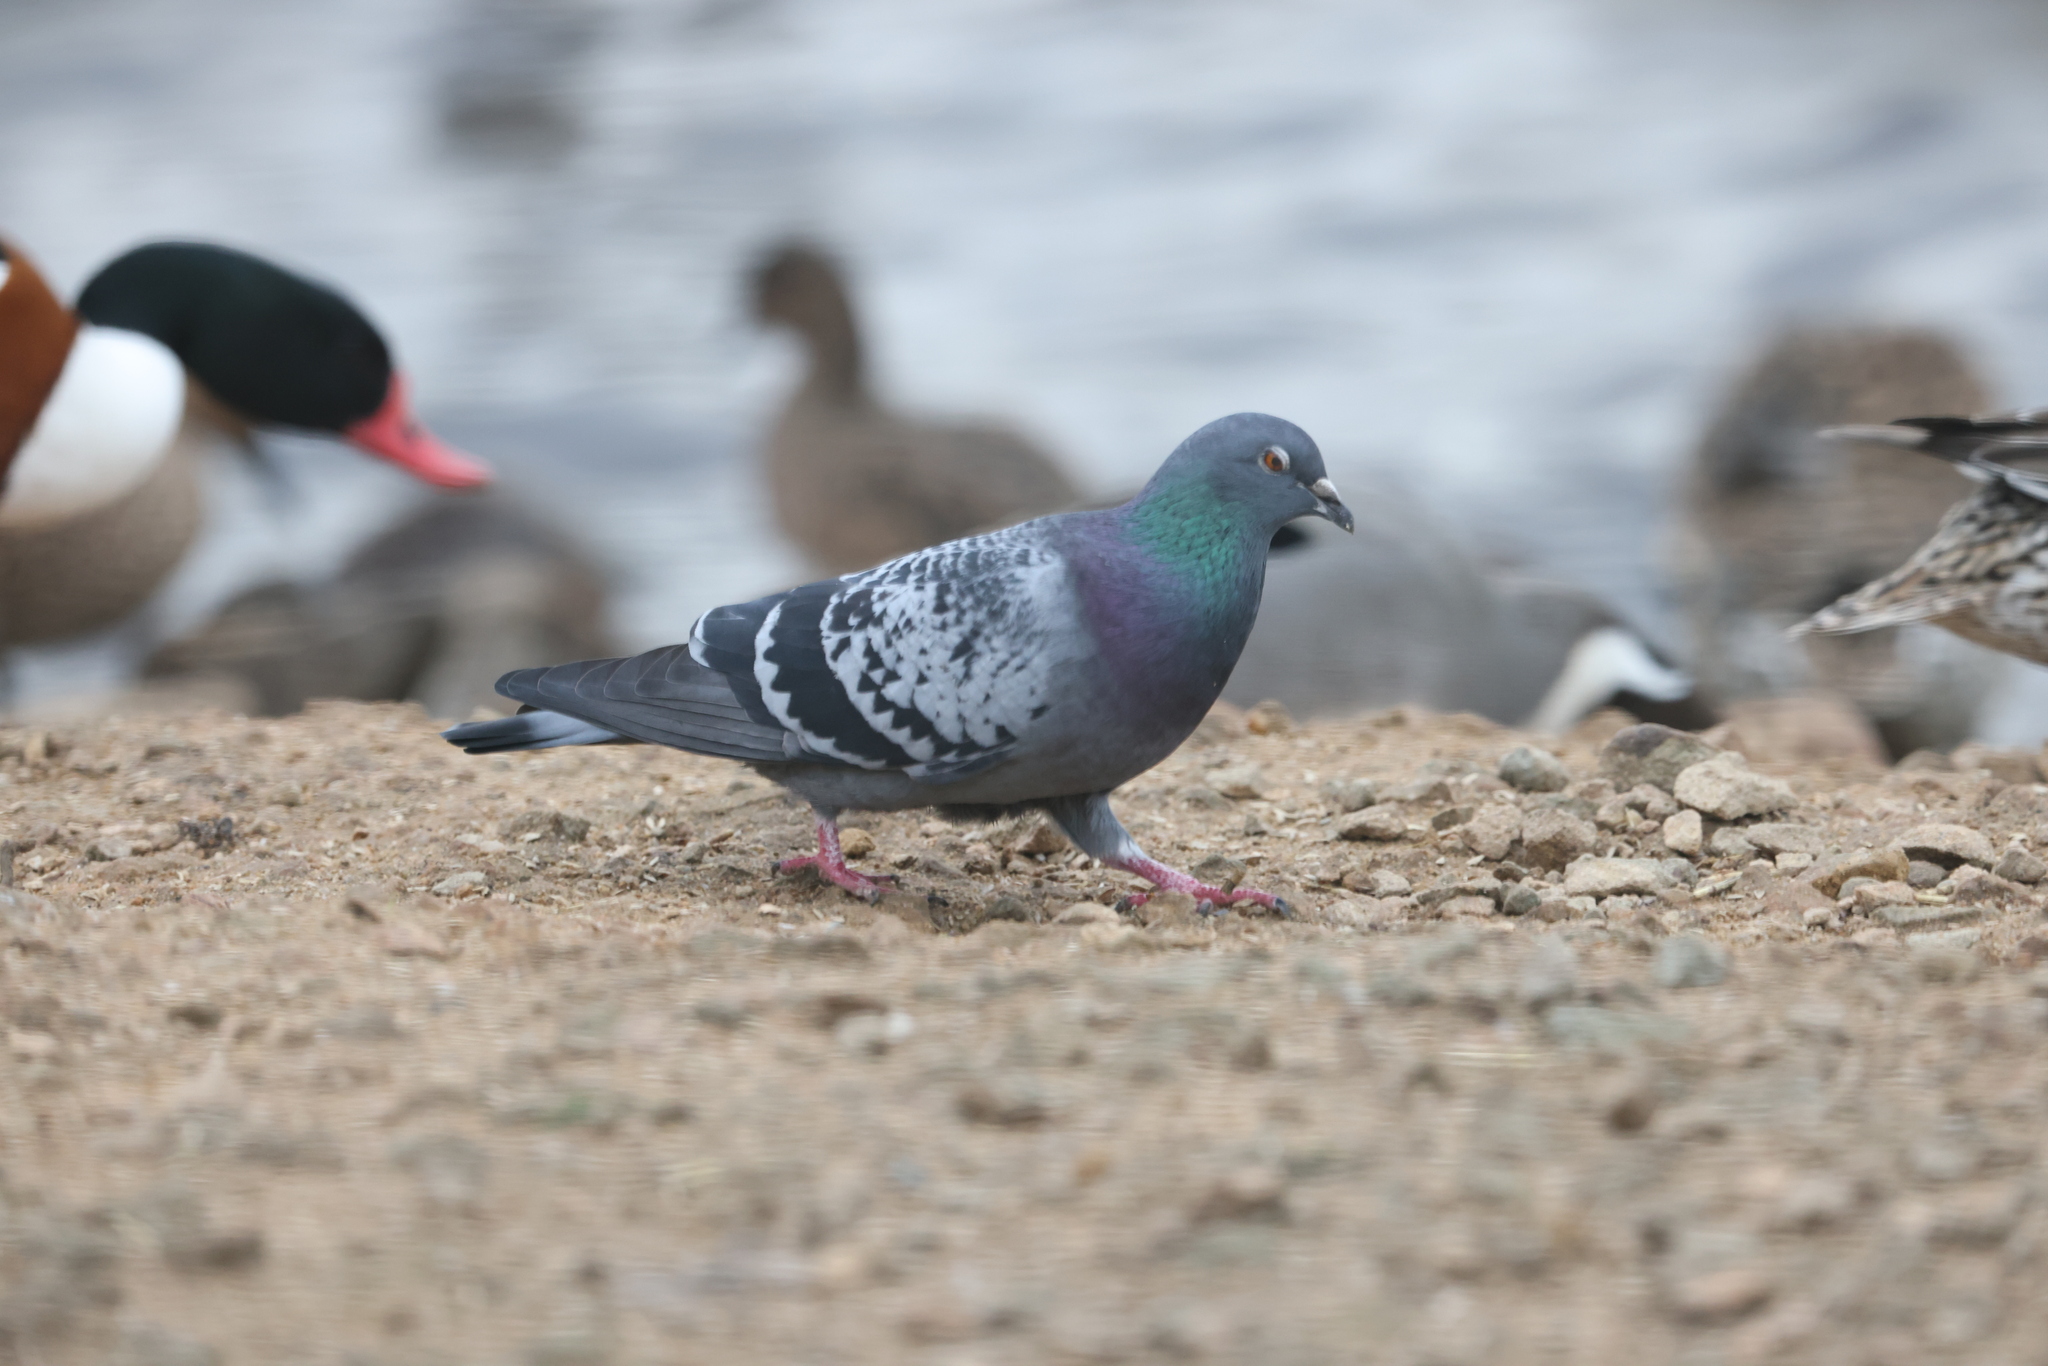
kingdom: Animalia
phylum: Chordata
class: Aves
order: Columbiformes
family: Columbidae
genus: Columba
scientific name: Columba livia
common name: Rock pigeon
